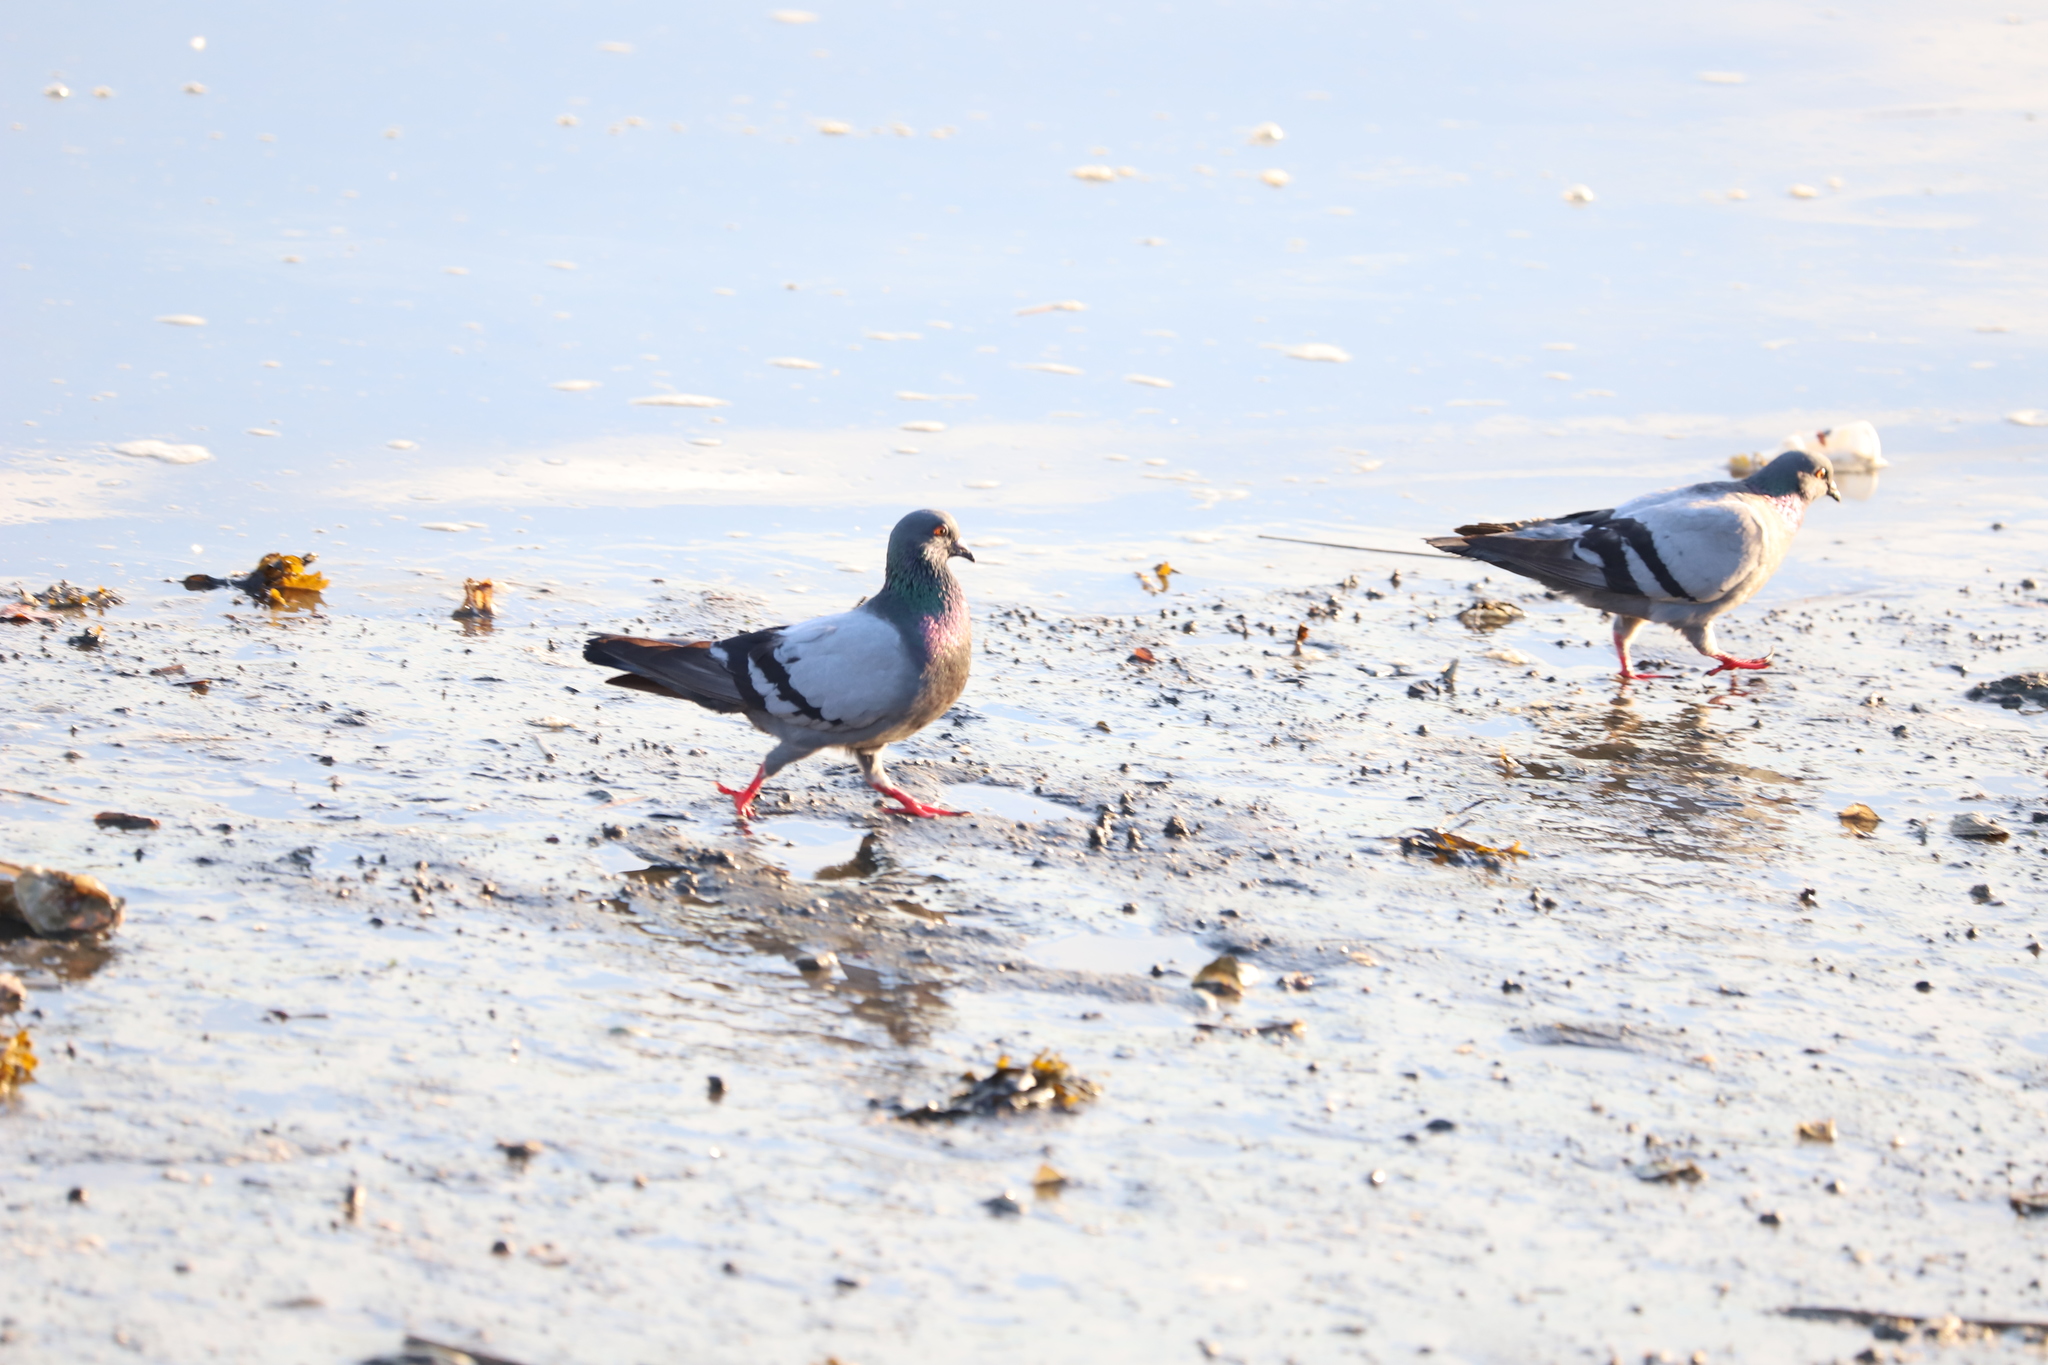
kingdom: Animalia
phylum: Chordata
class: Aves
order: Columbiformes
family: Columbidae
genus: Columba
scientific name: Columba livia
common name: Rock pigeon
